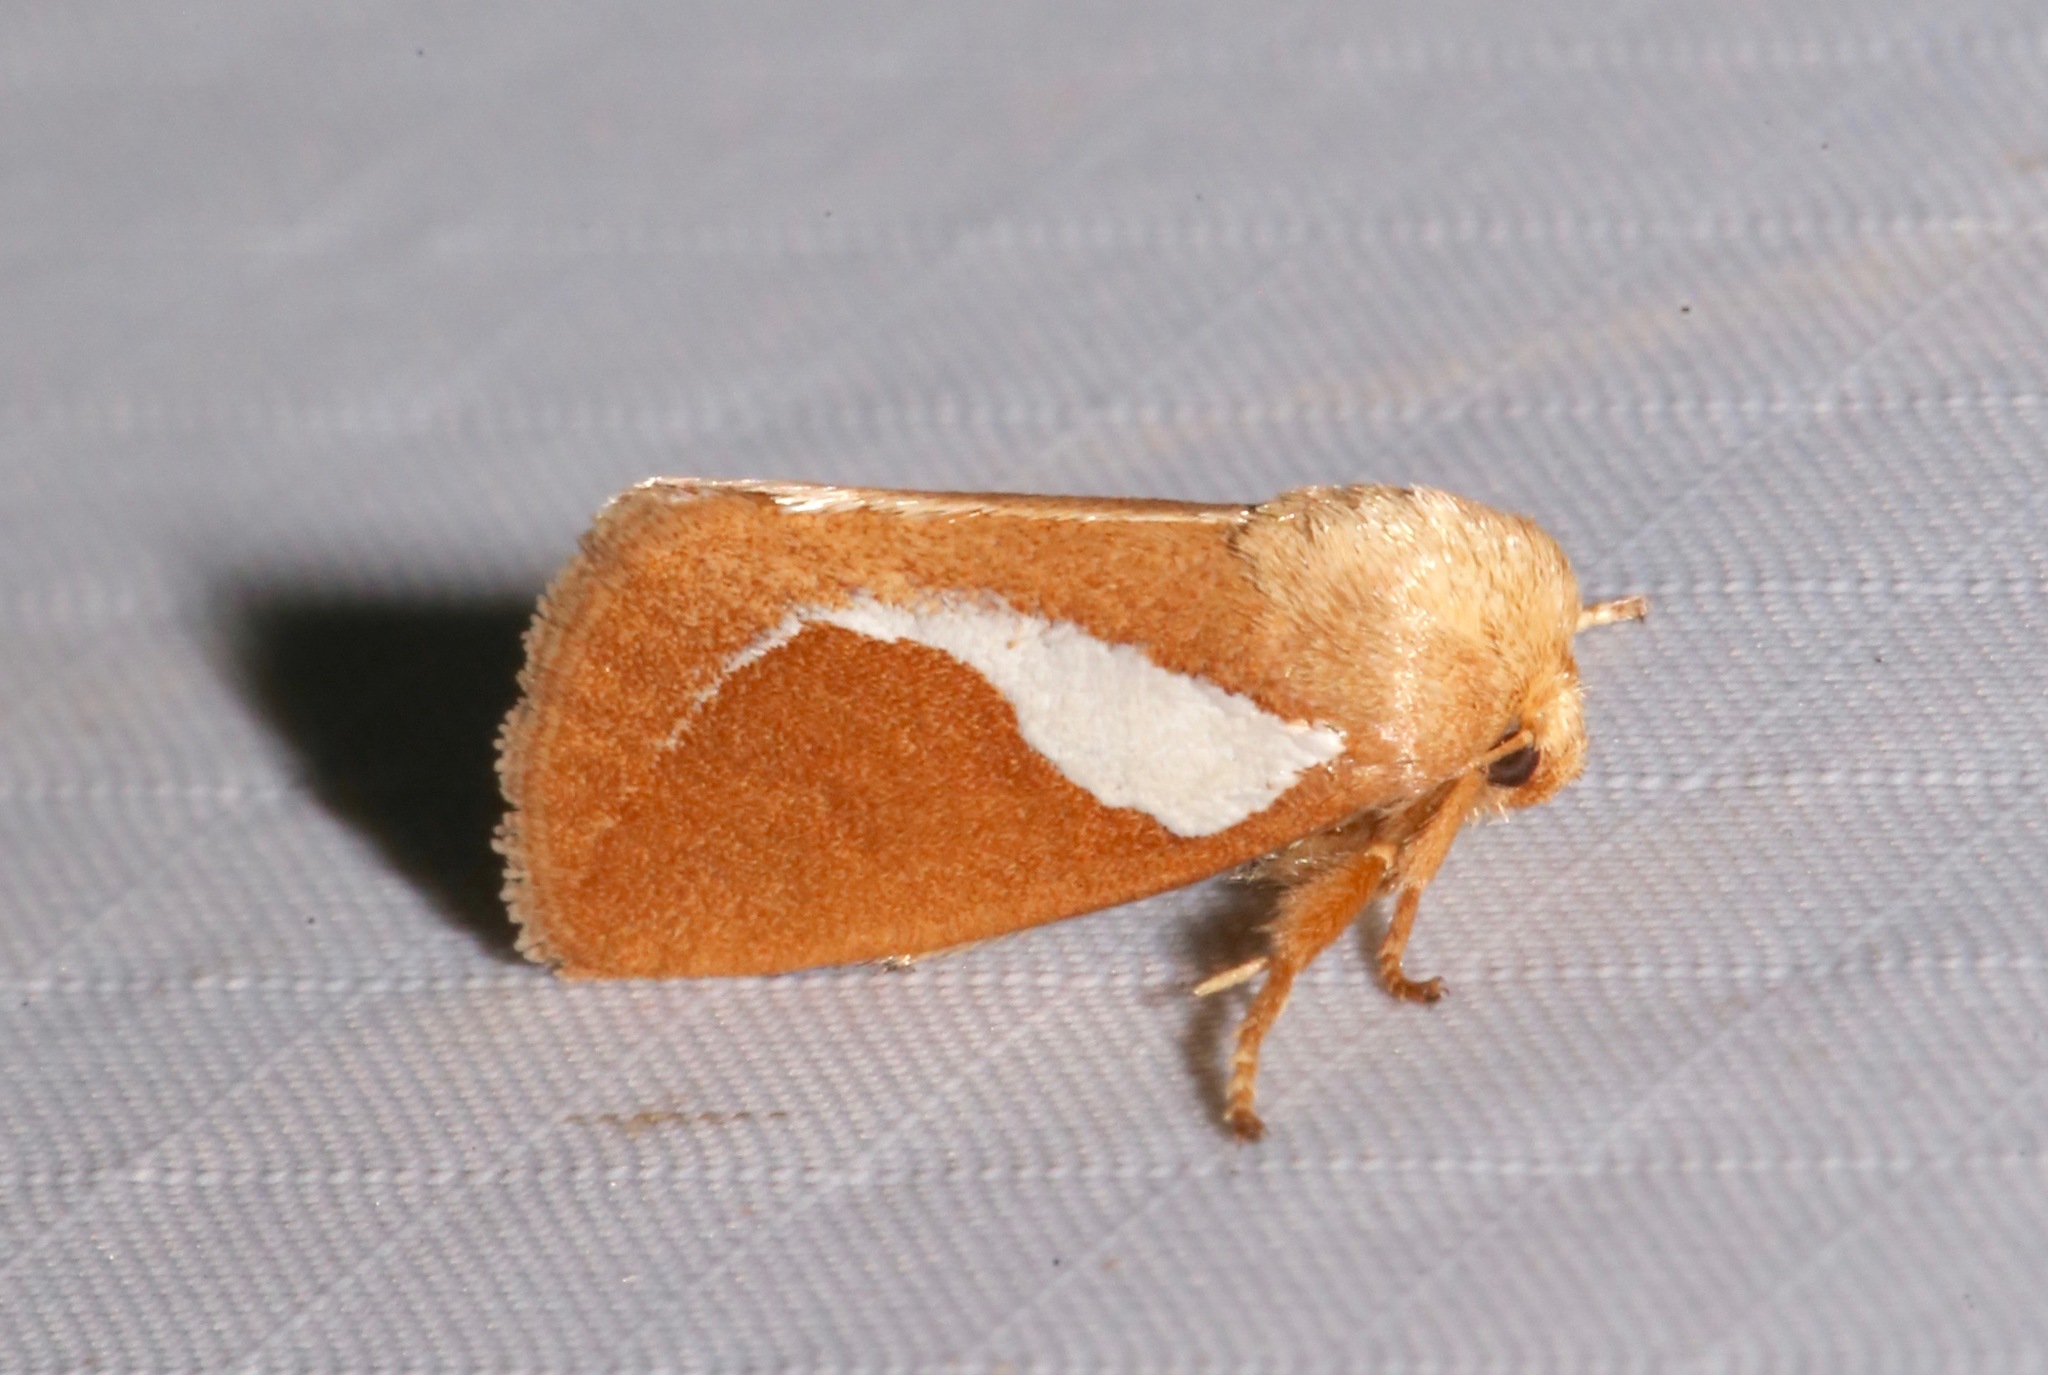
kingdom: Animalia
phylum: Arthropoda
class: Insecta
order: Lepidoptera
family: Limacodidae
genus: Prolimacodes
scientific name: Prolimacodes trigona
